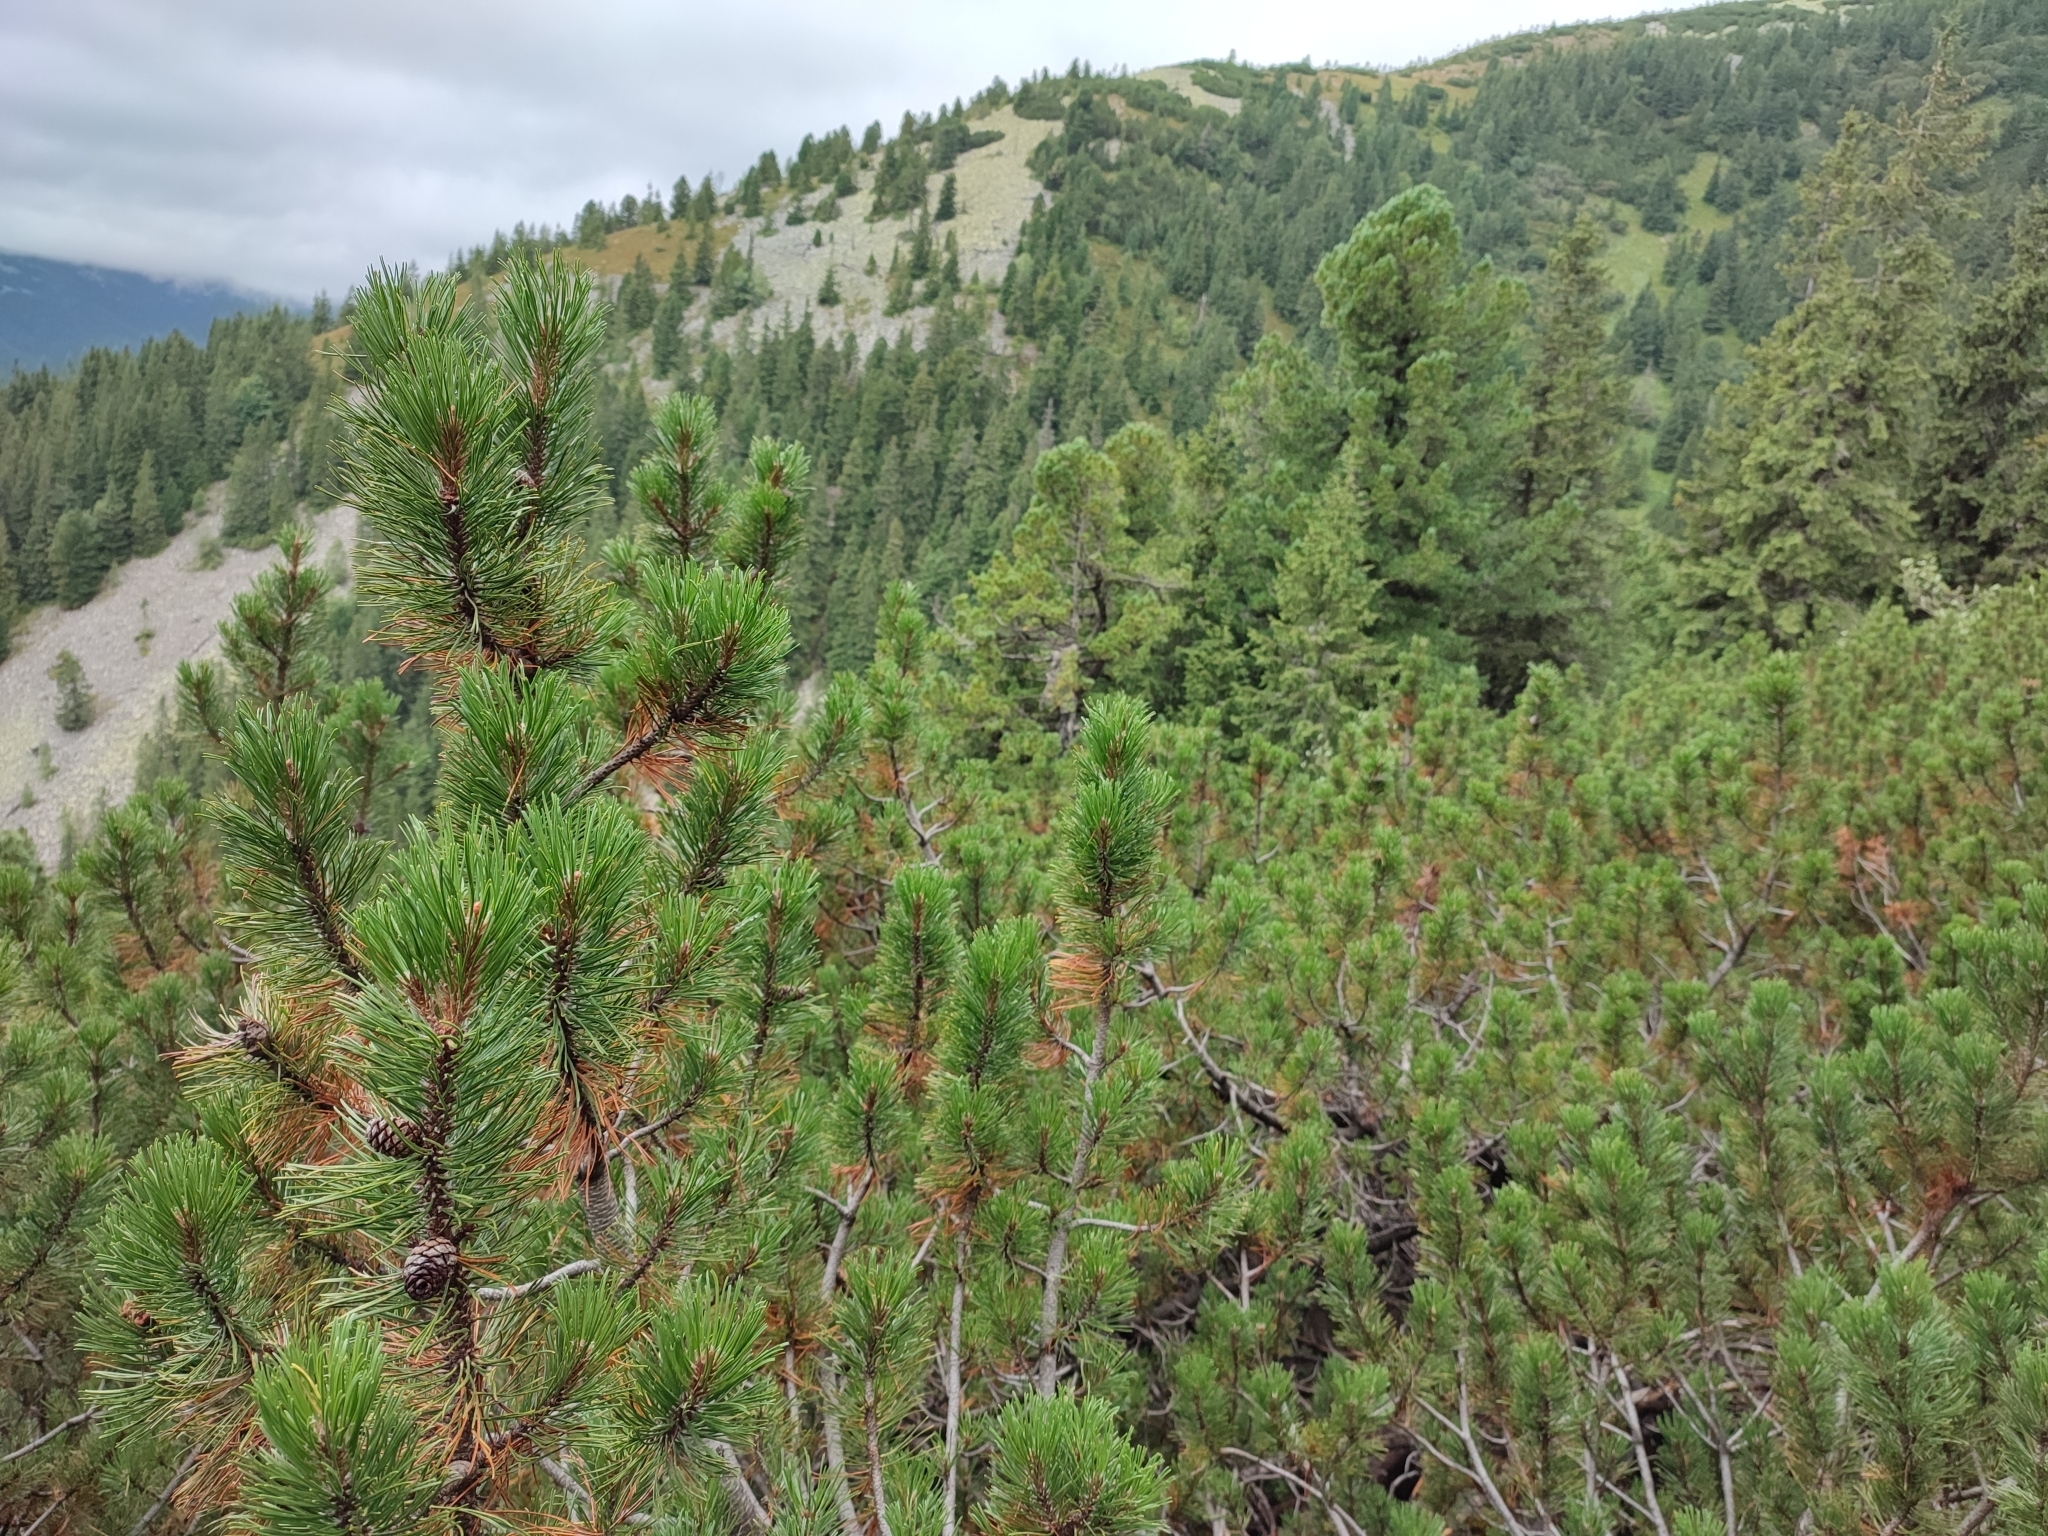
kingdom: Plantae
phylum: Tracheophyta
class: Pinopsida
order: Pinales
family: Pinaceae
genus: Pinus
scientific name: Pinus mugo
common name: Mugo pine
